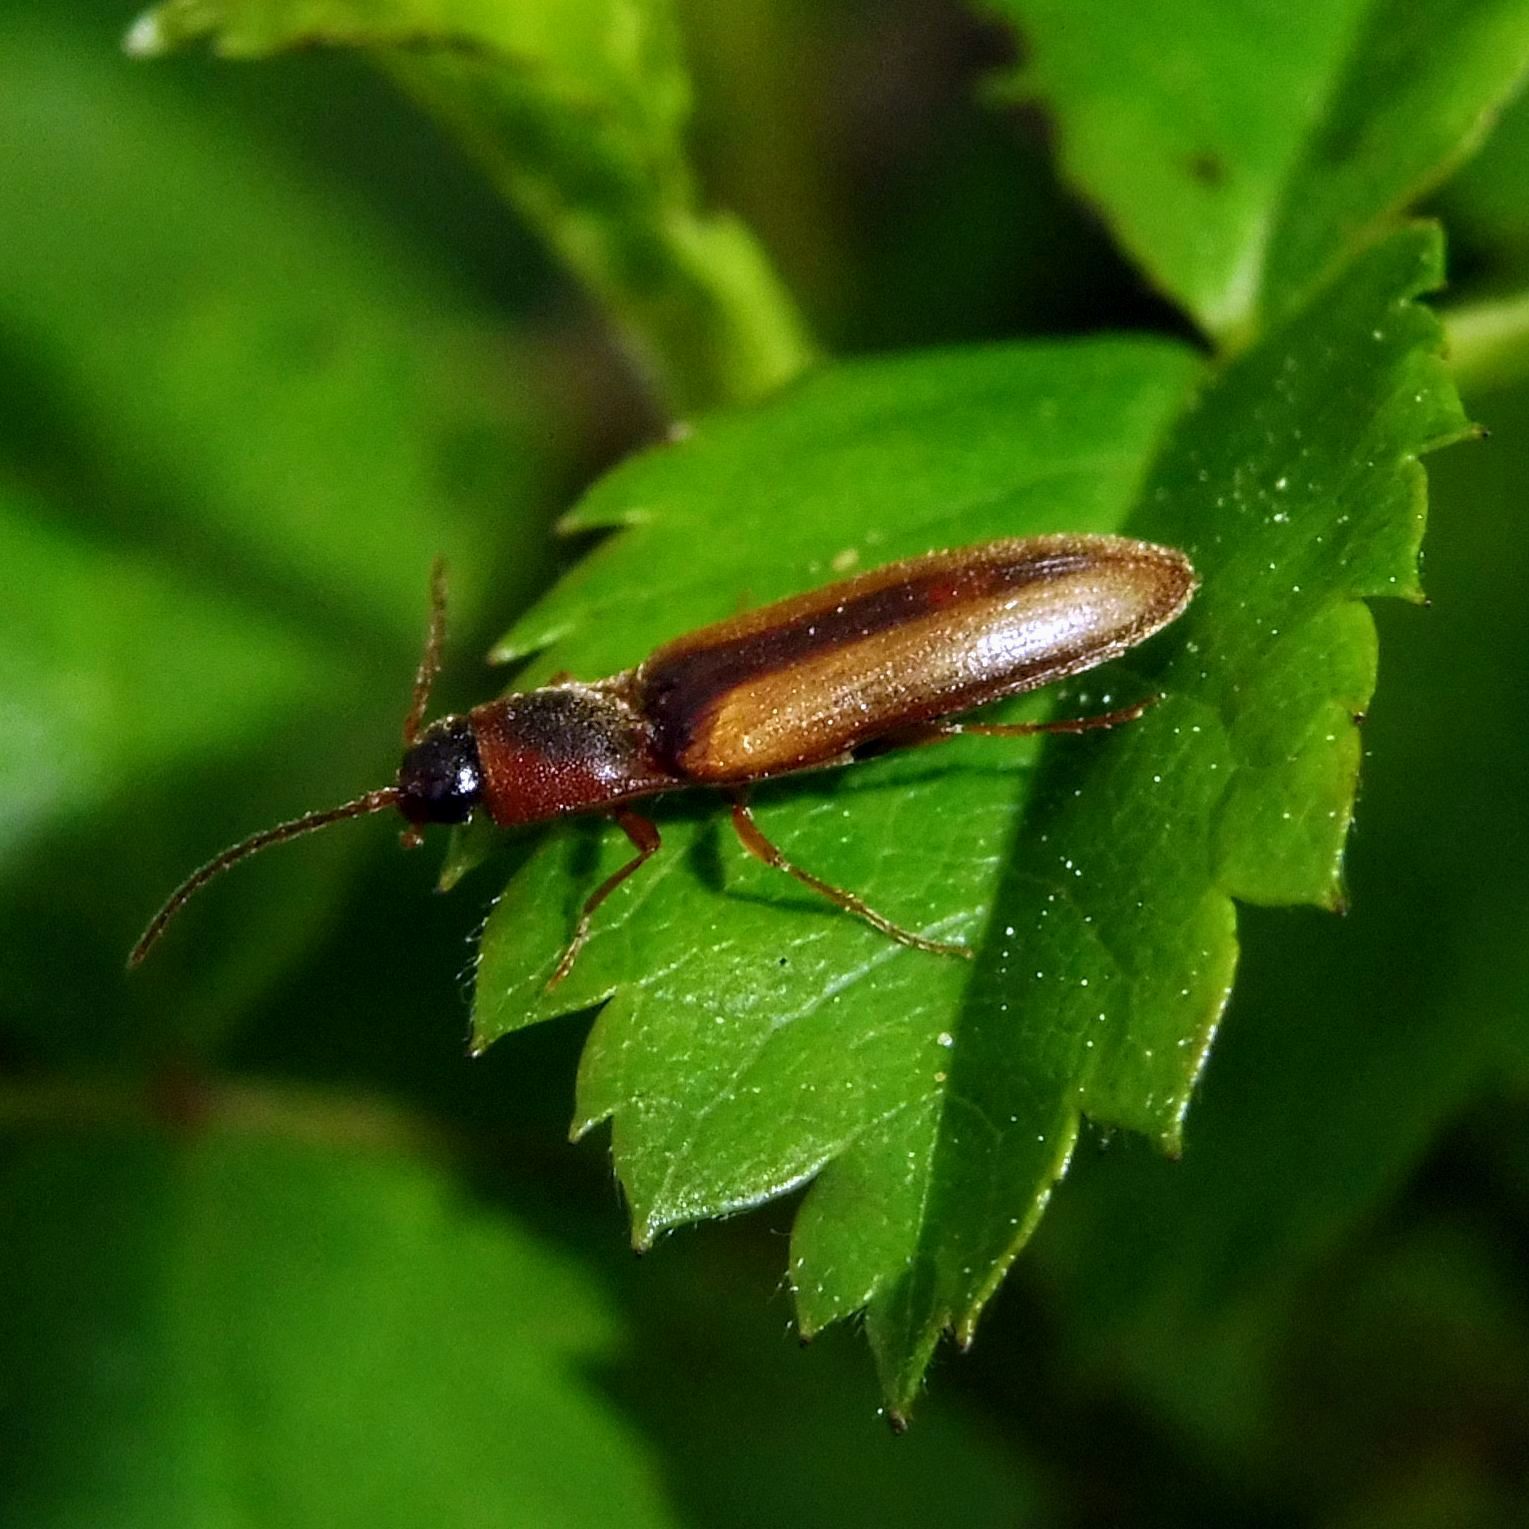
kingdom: Animalia
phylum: Arthropoda
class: Insecta
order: Coleoptera
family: Elateridae
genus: Dalopius
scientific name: Dalopius marginatus
